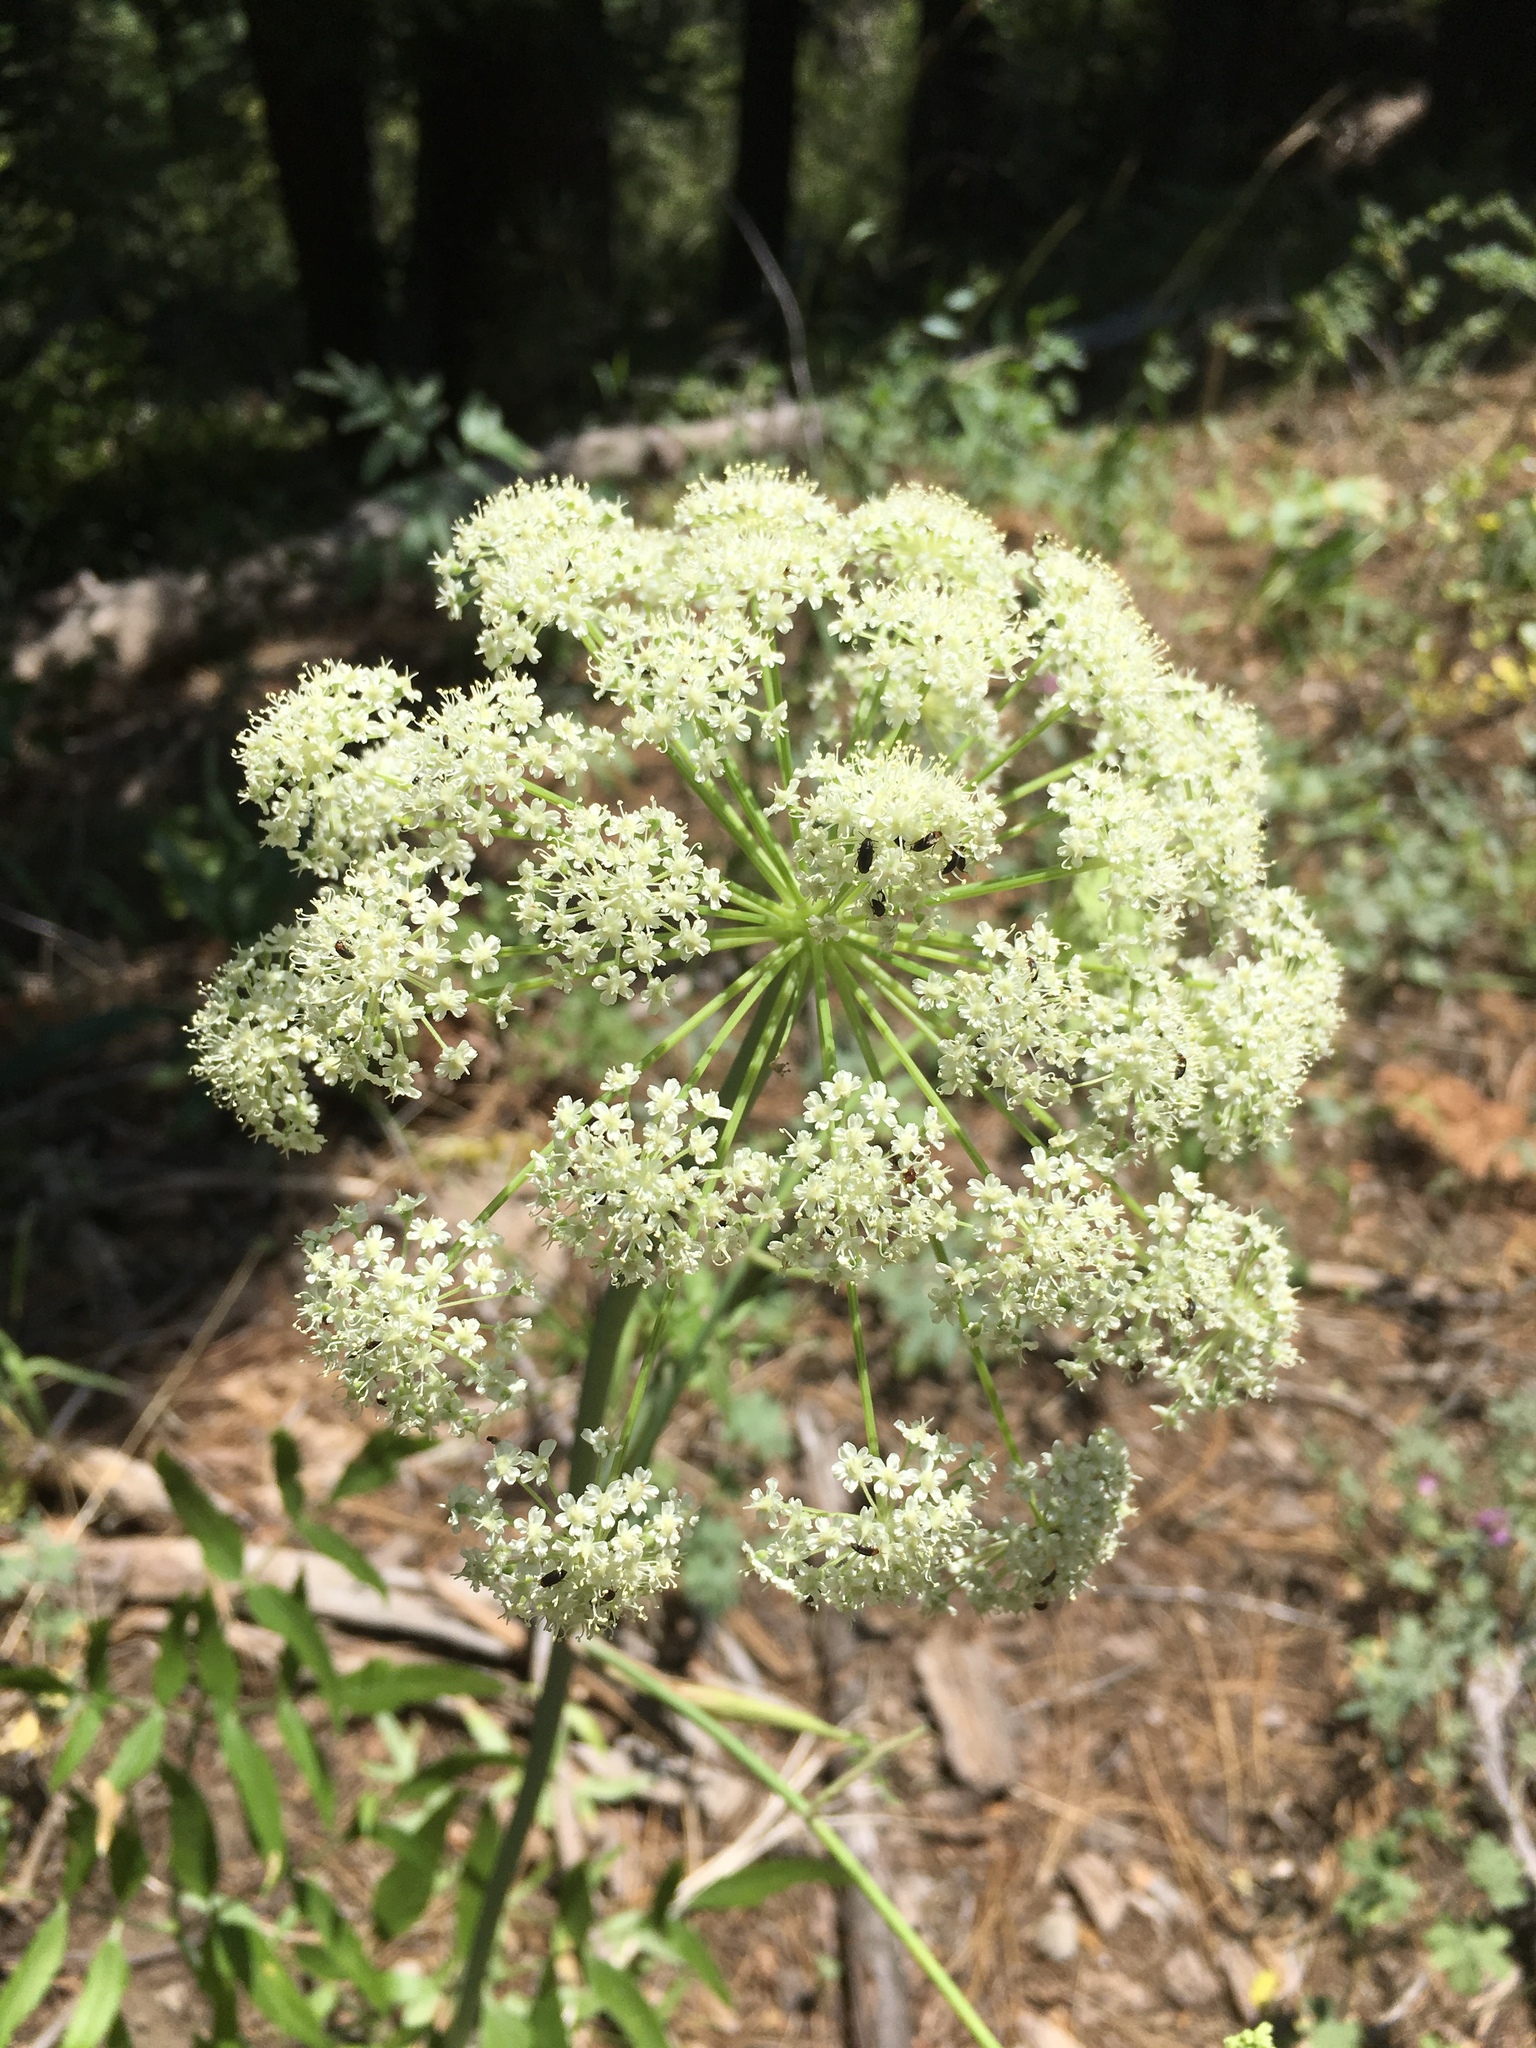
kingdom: Plantae
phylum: Tracheophyta
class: Magnoliopsida
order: Apiales
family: Apiaceae
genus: Angelica
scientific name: Angelica breweri
